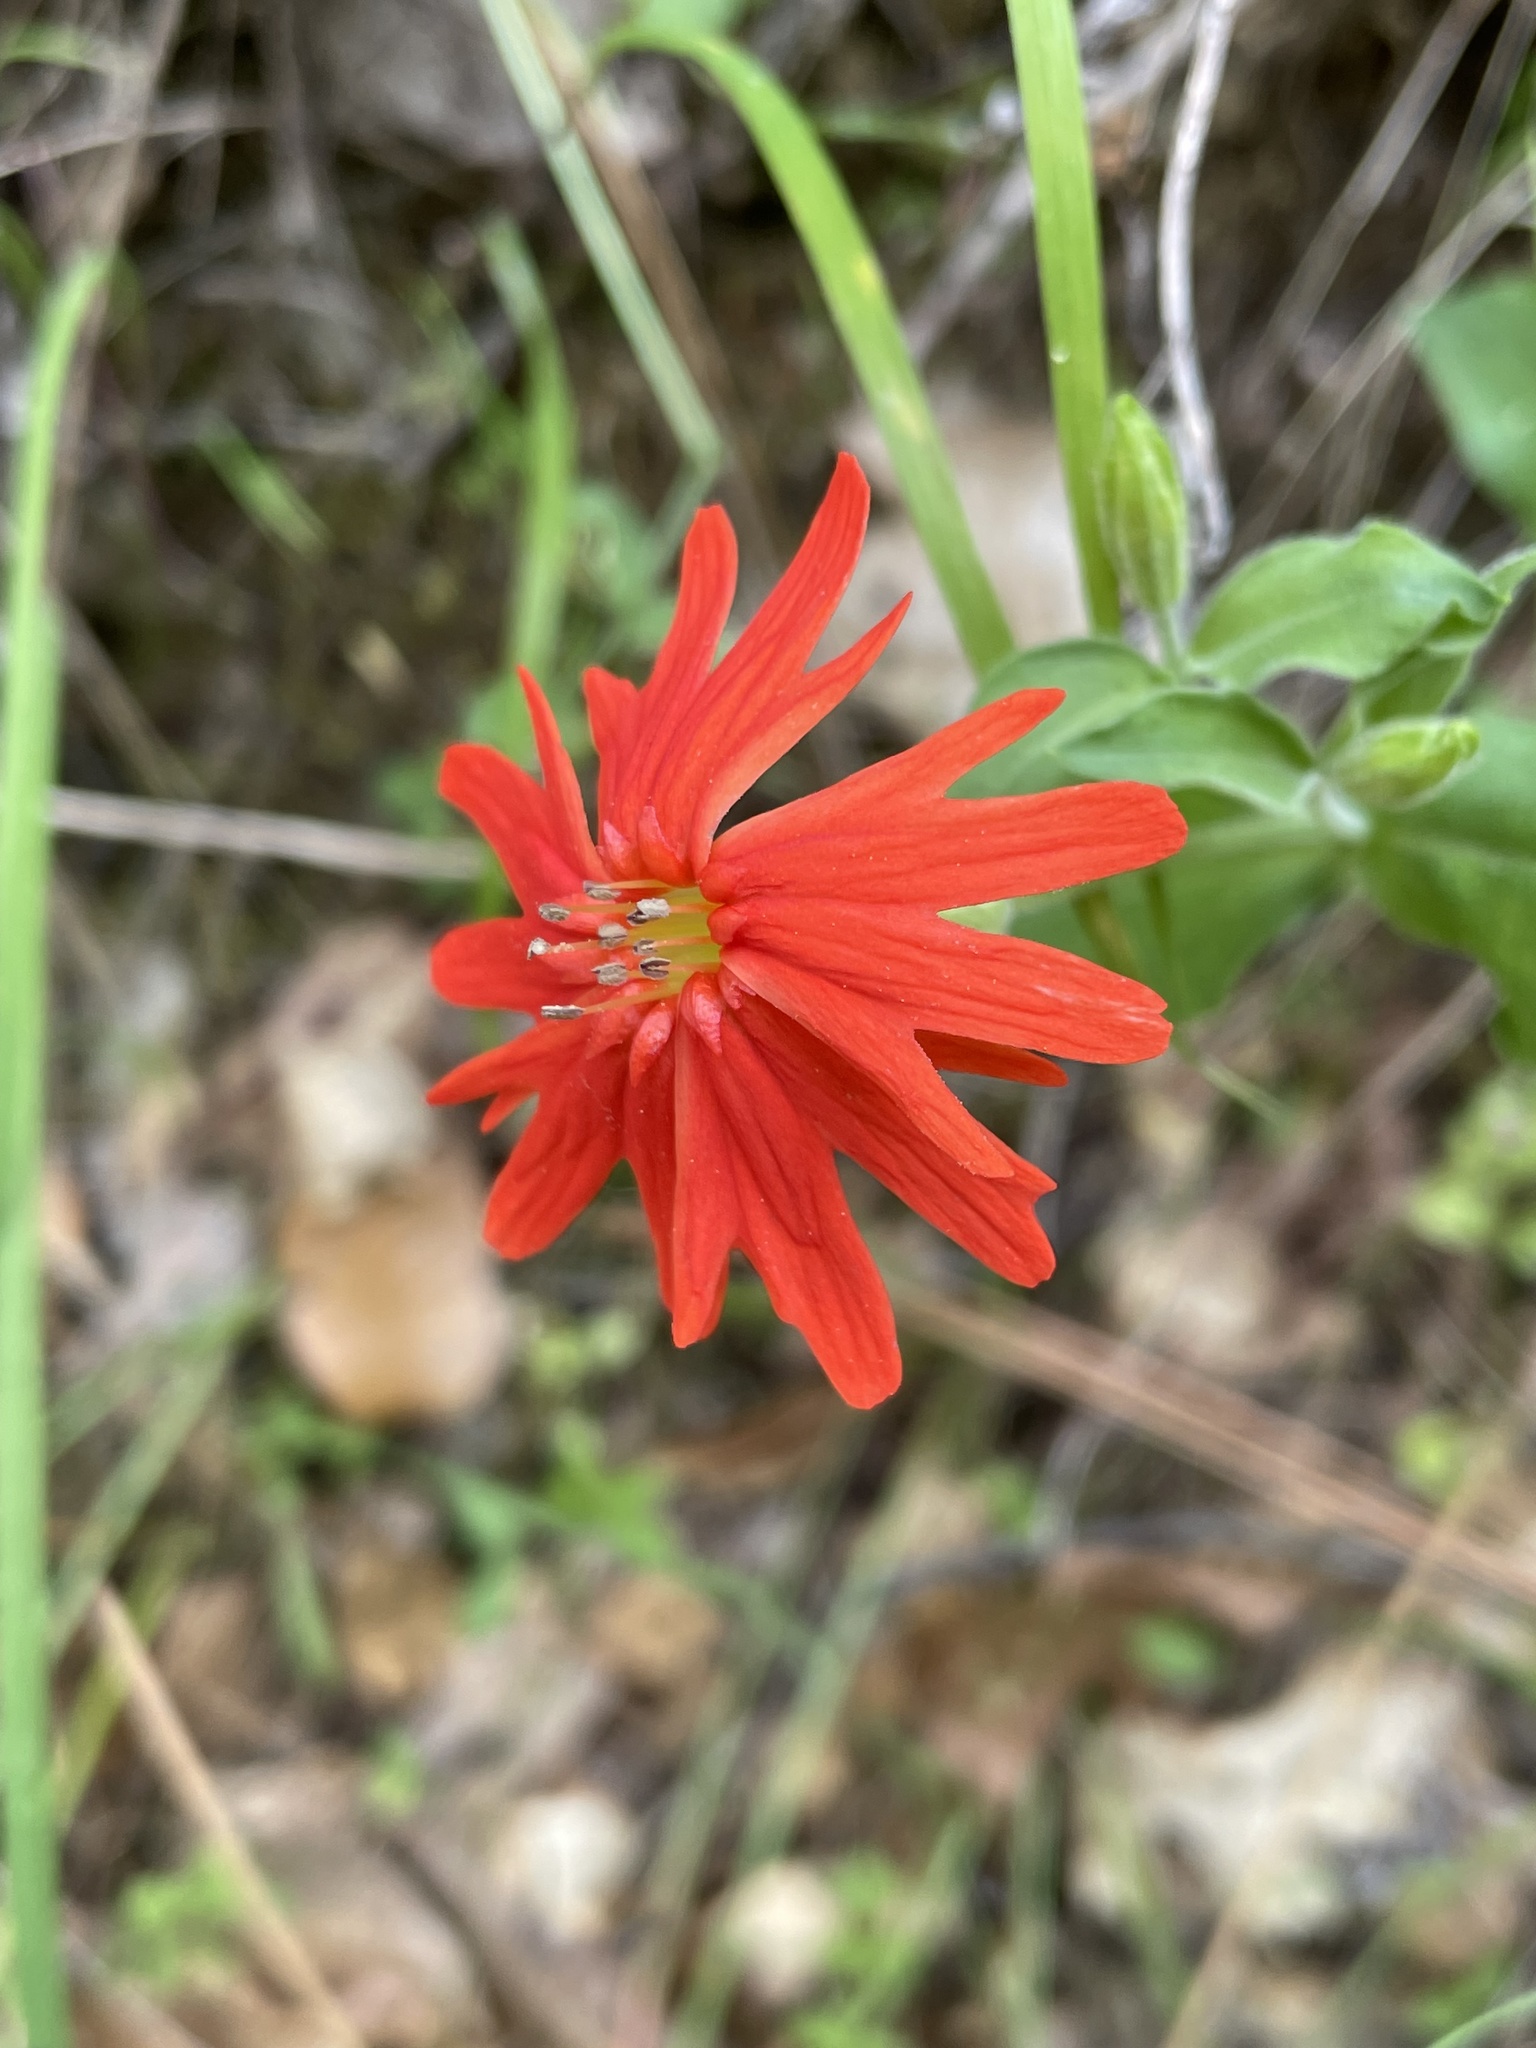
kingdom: Plantae
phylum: Tracheophyta
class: Magnoliopsida
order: Caryophyllales
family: Caryophyllaceae
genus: Silene
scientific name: Silene laciniata
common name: Indian-pink
